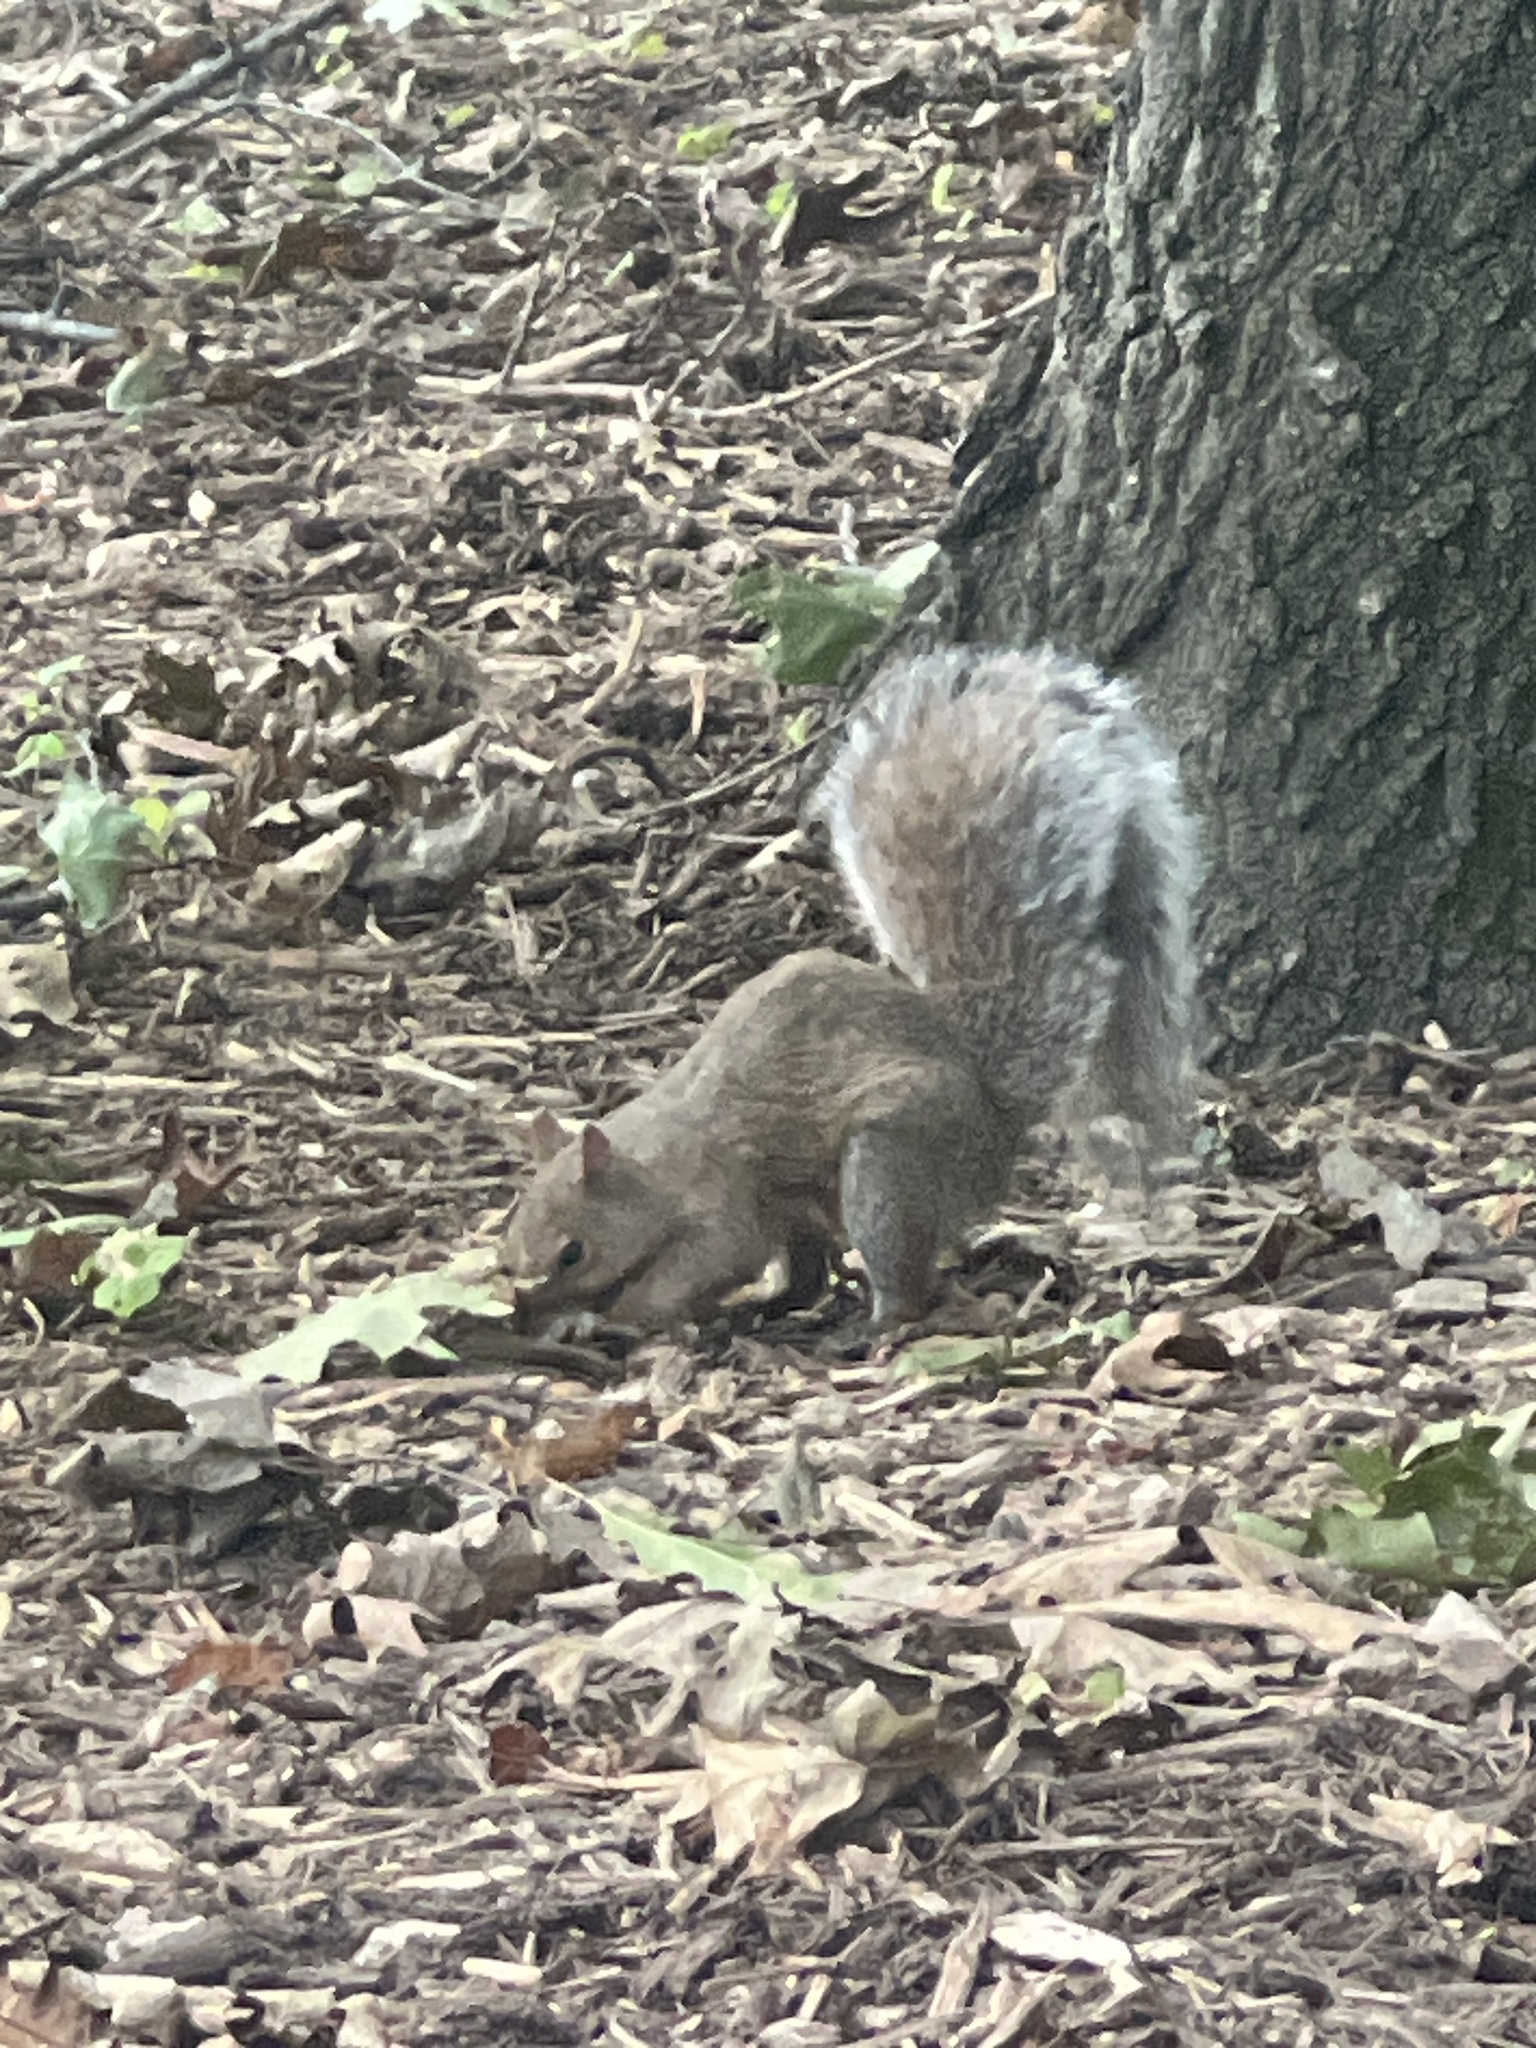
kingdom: Animalia
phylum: Chordata
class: Mammalia
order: Rodentia
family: Sciuridae
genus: Sciurus
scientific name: Sciurus carolinensis
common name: Eastern gray squirrel
